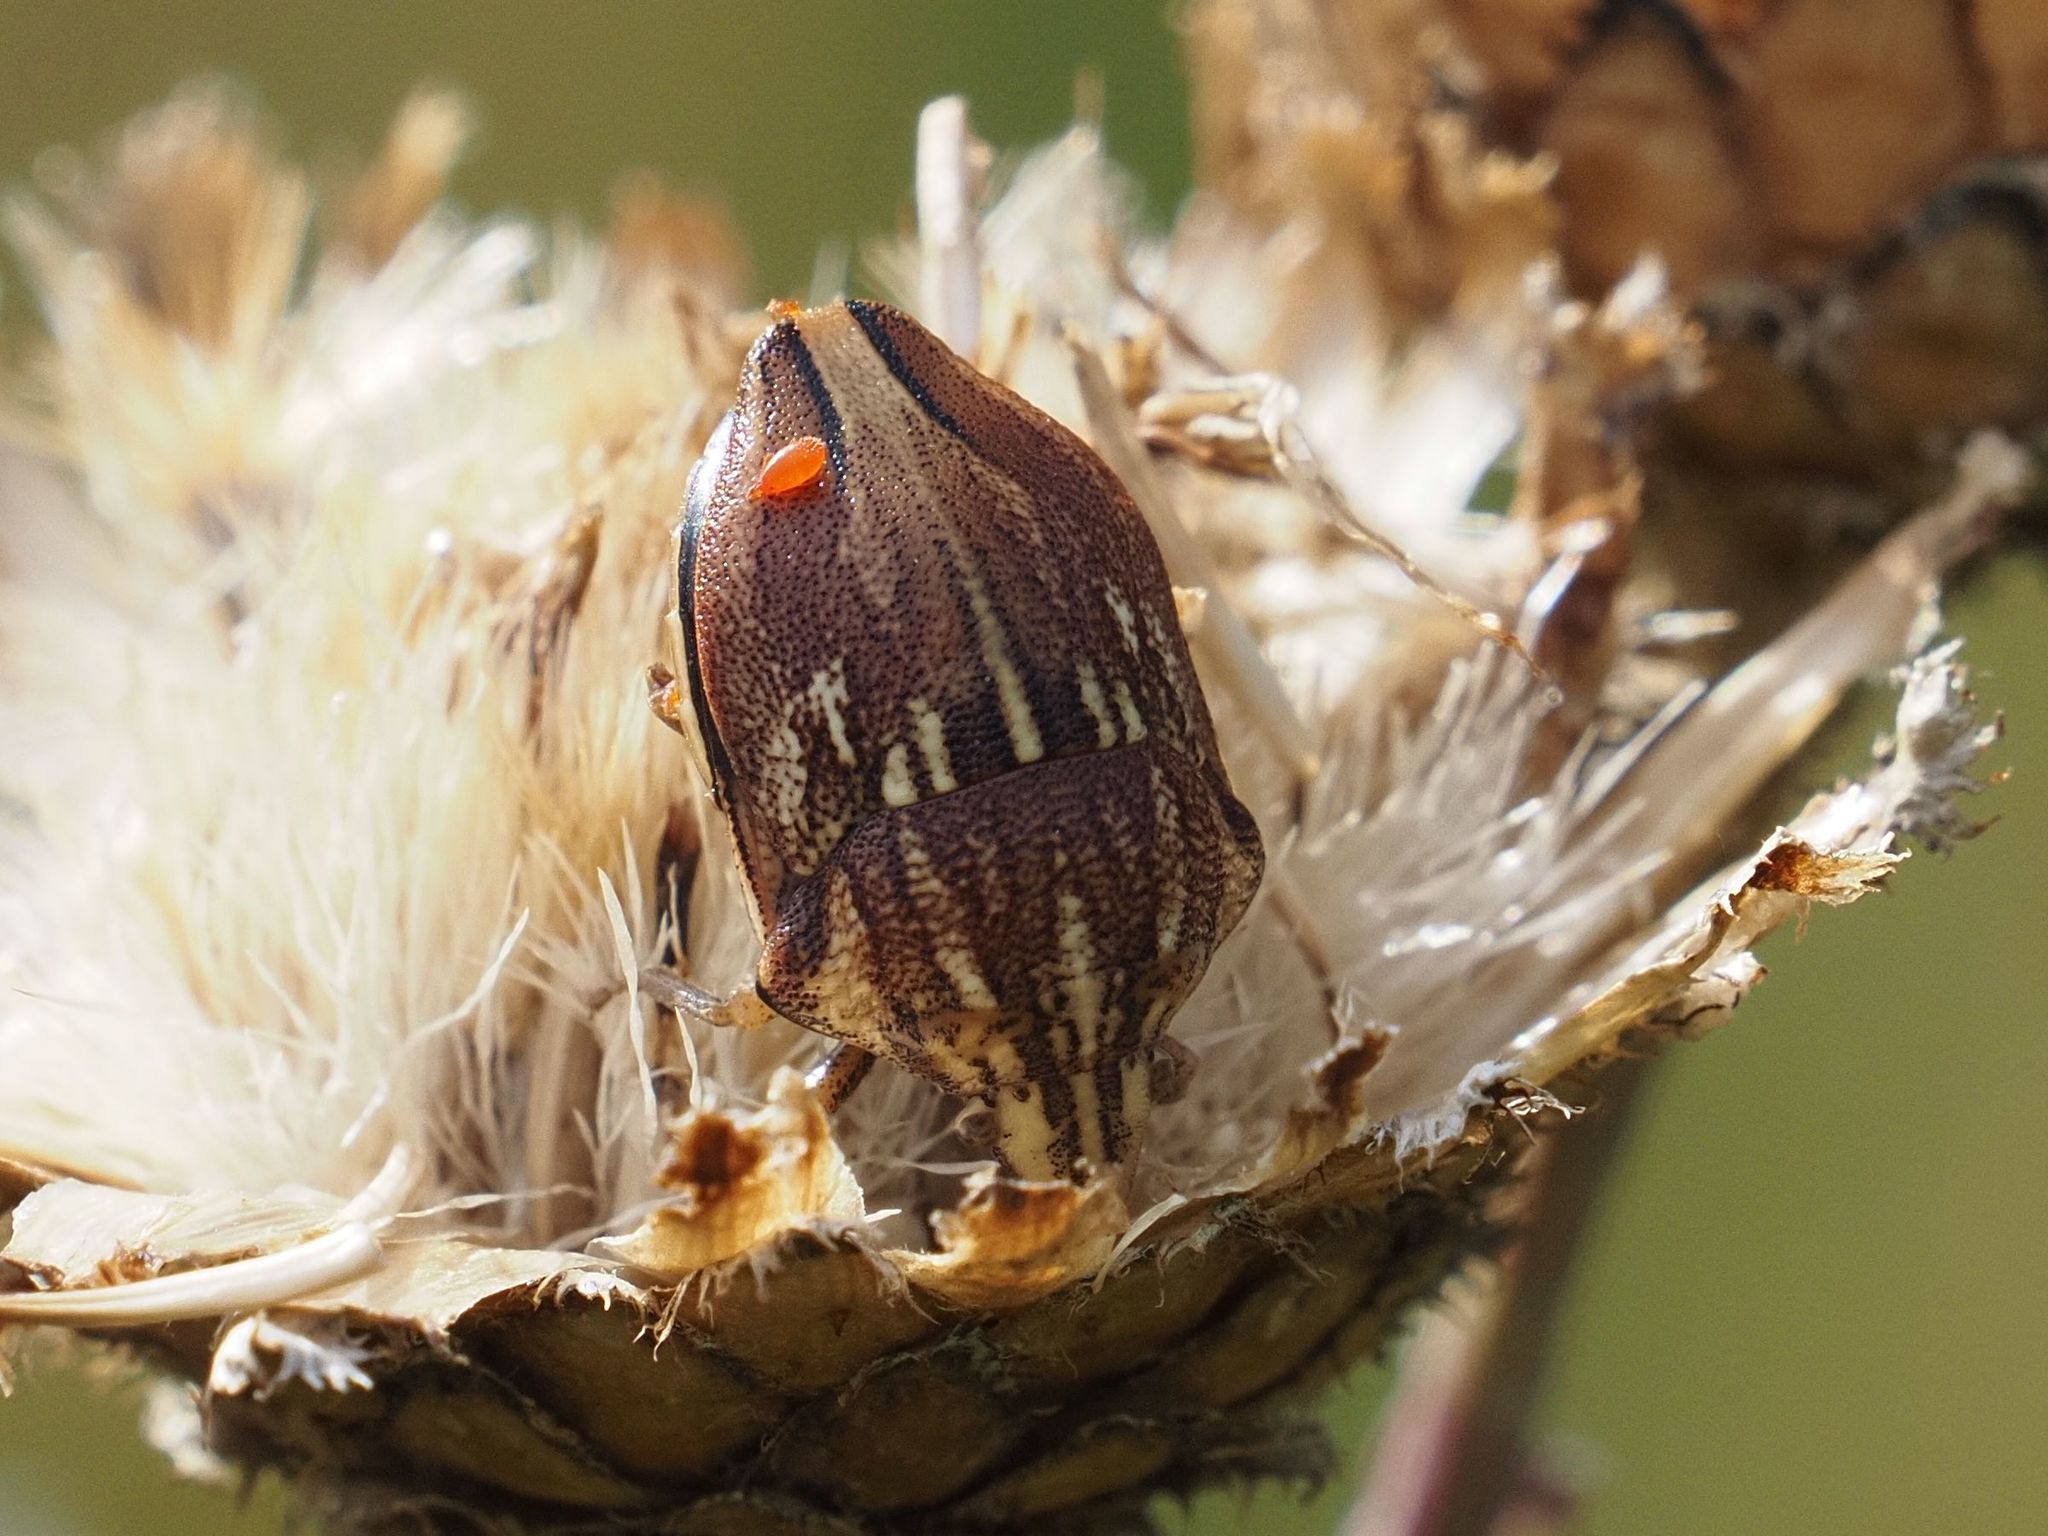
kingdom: Animalia
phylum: Arthropoda
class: Insecta
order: Hemiptera
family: Scutelleridae
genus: Odontotarsus
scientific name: Odontotarsus purpureolineatus
